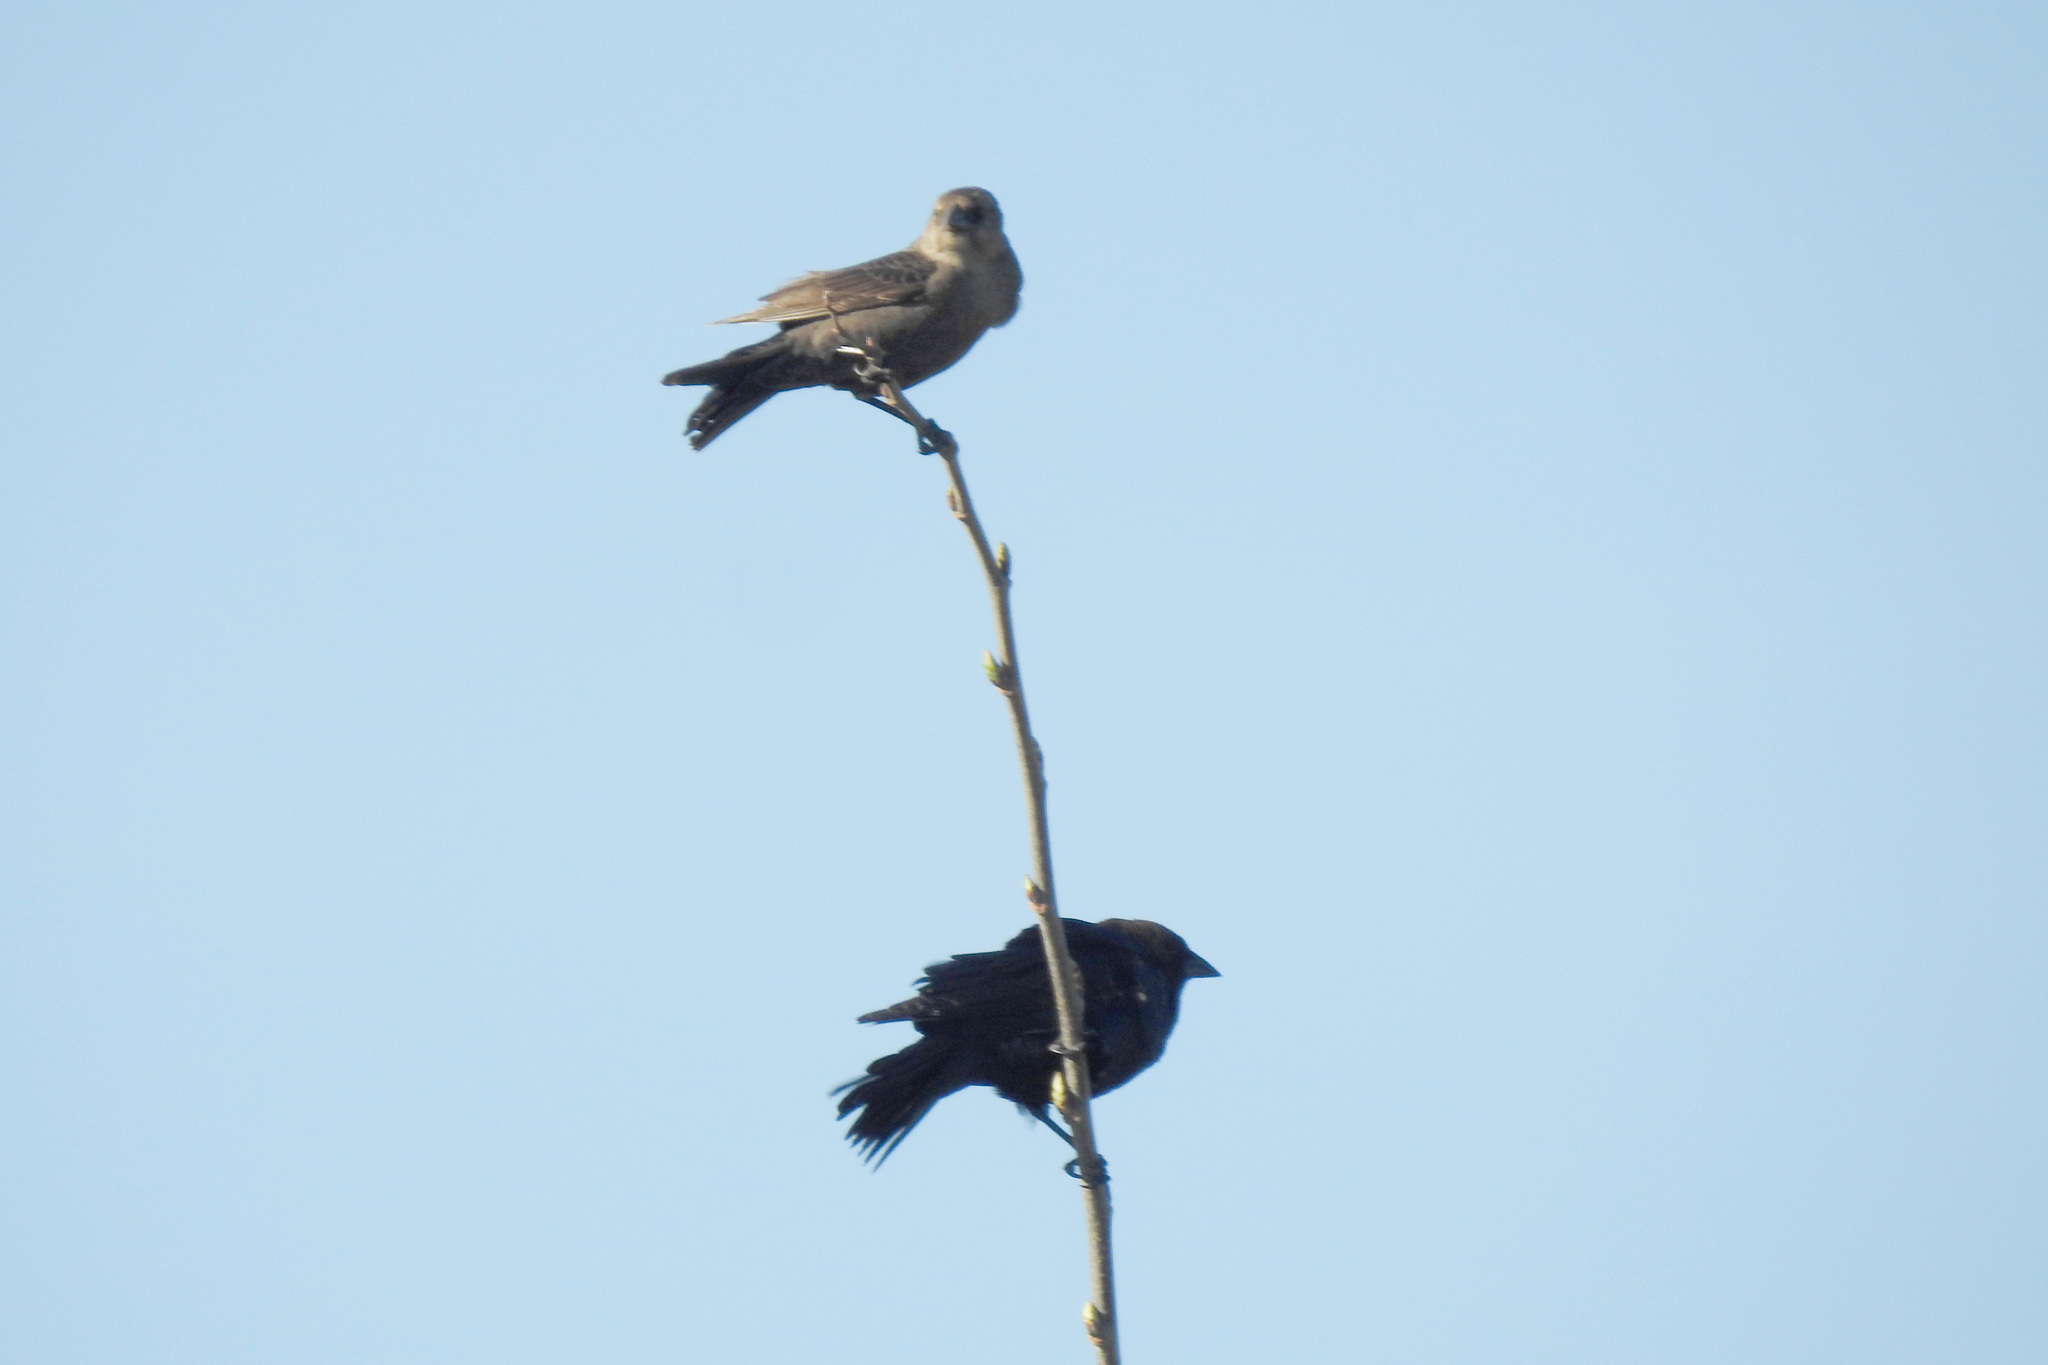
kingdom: Animalia
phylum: Chordata
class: Aves
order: Passeriformes
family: Icteridae
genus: Molothrus
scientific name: Molothrus ater
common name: Brown-headed cowbird
